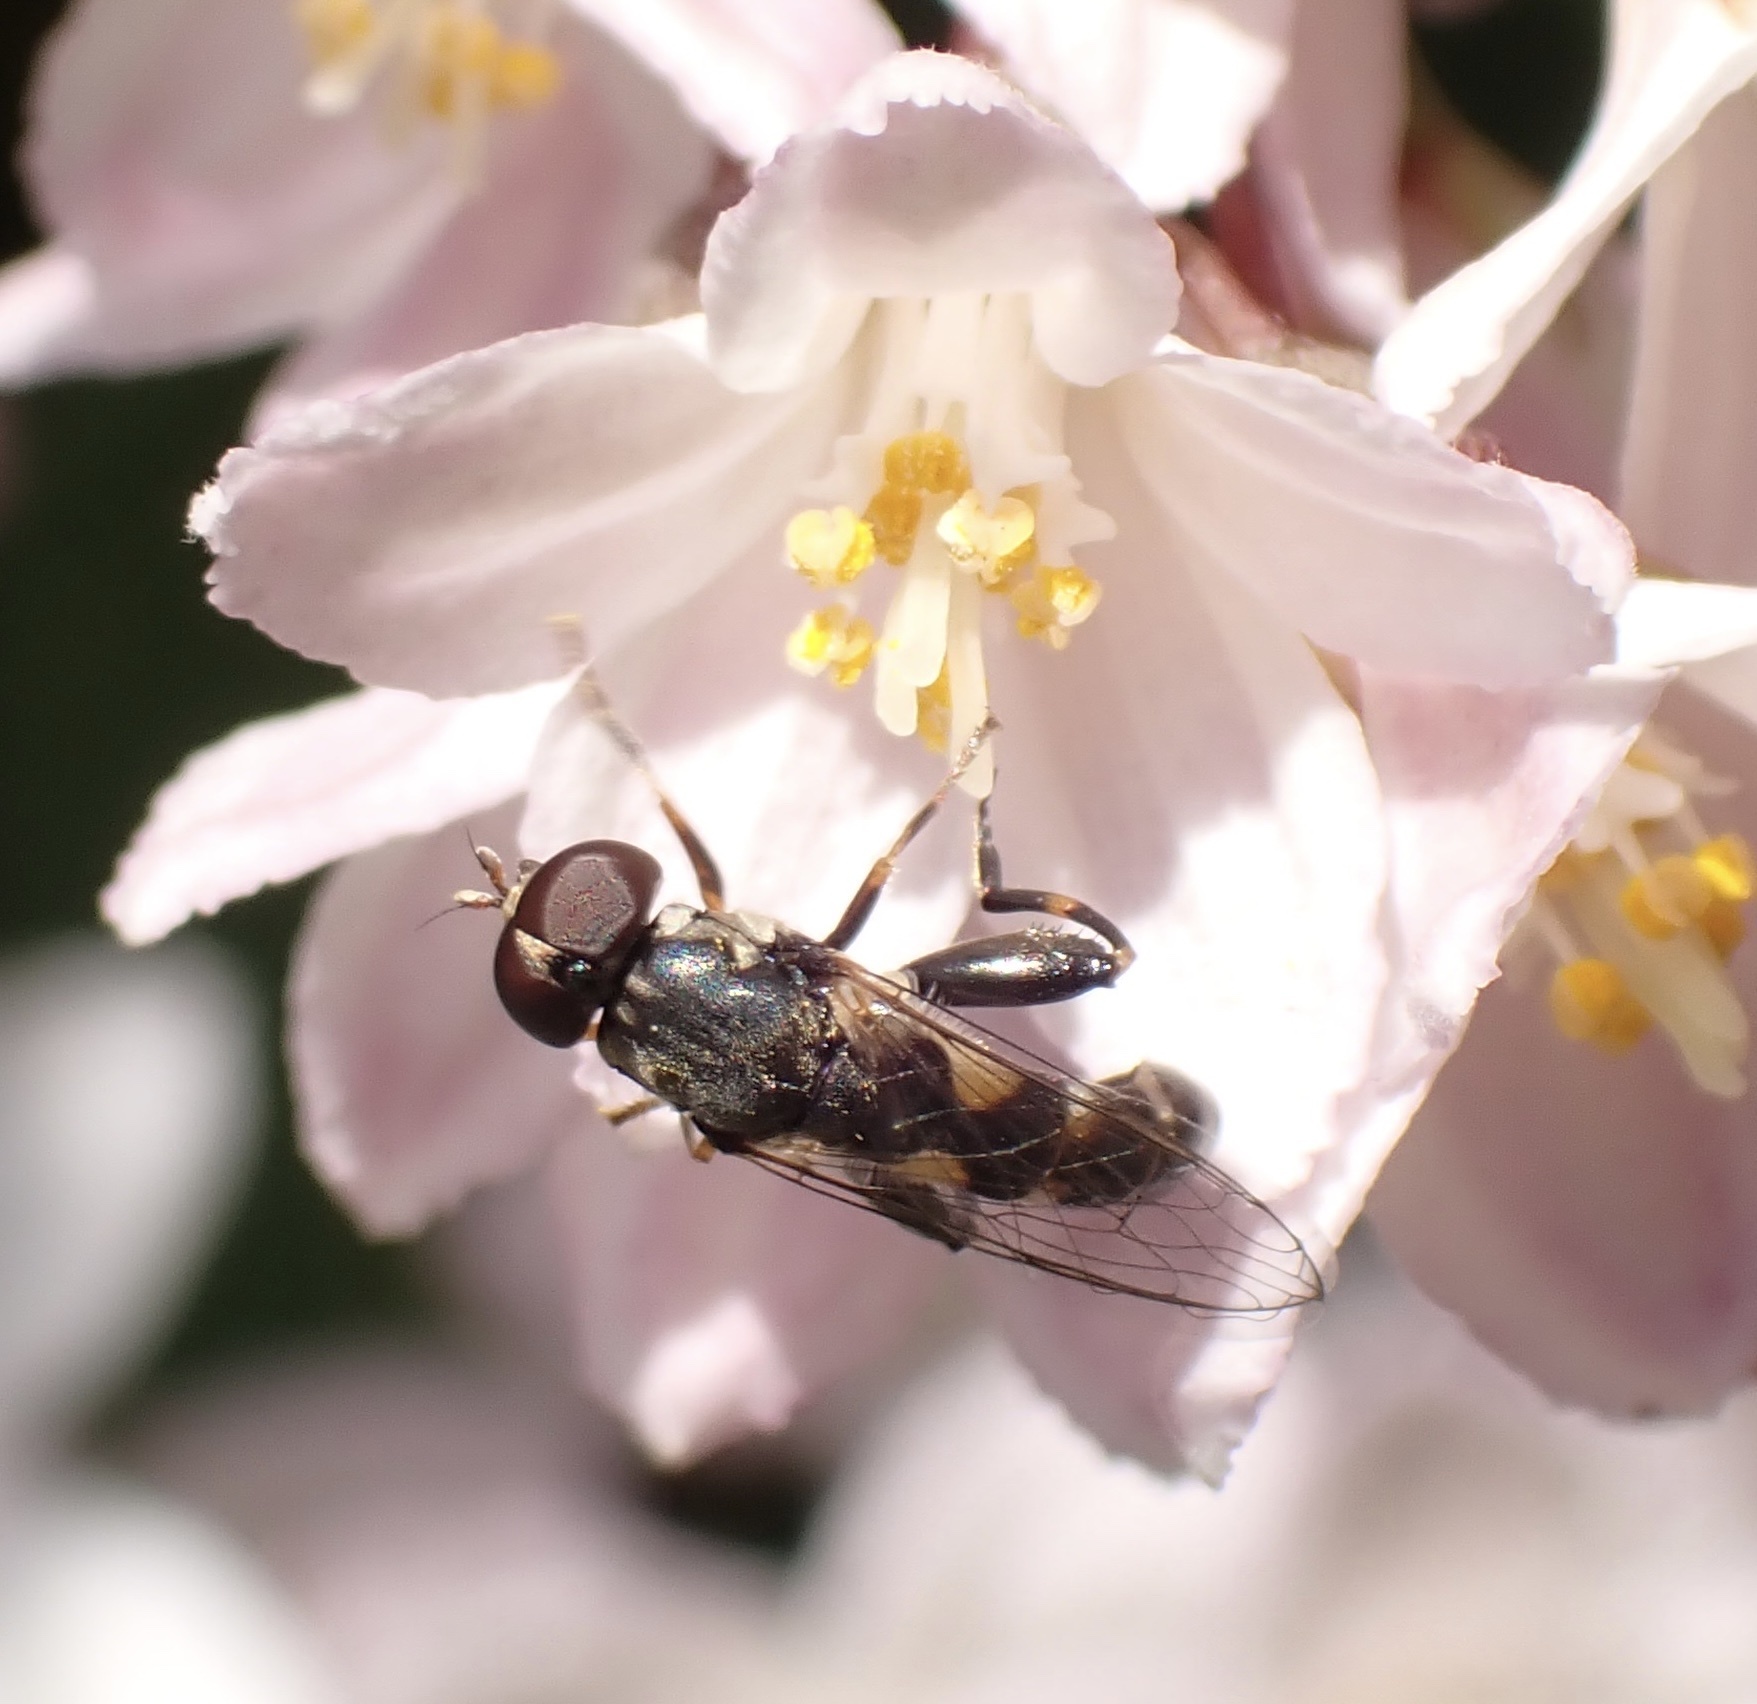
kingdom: Animalia
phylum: Arthropoda
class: Insecta
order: Diptera
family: Syrphidae
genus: Syritta
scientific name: Syritta pipiens
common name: Hover fly
